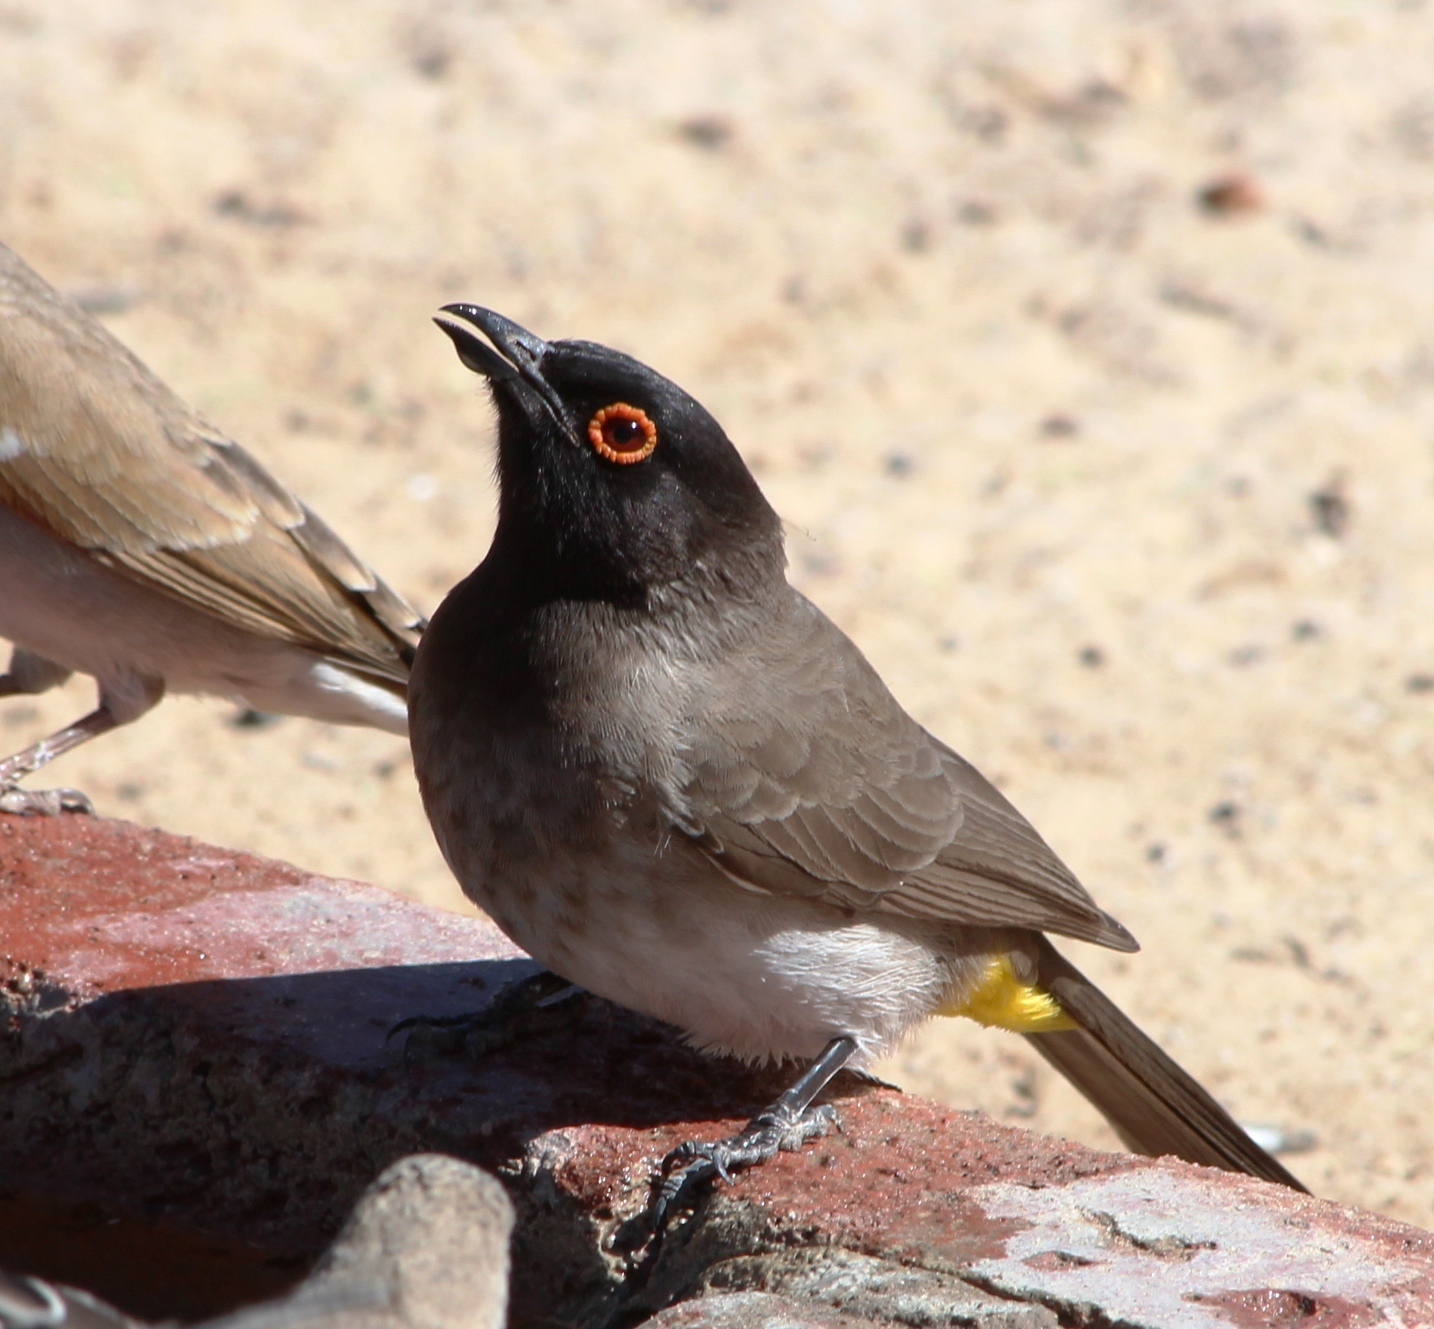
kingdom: Animalia
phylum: Chordata
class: Aves
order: Passeriformes
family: Pycnonotidae
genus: Pycnonotus
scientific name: Pycnonotus nigricans
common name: African red-eyed bulbul
